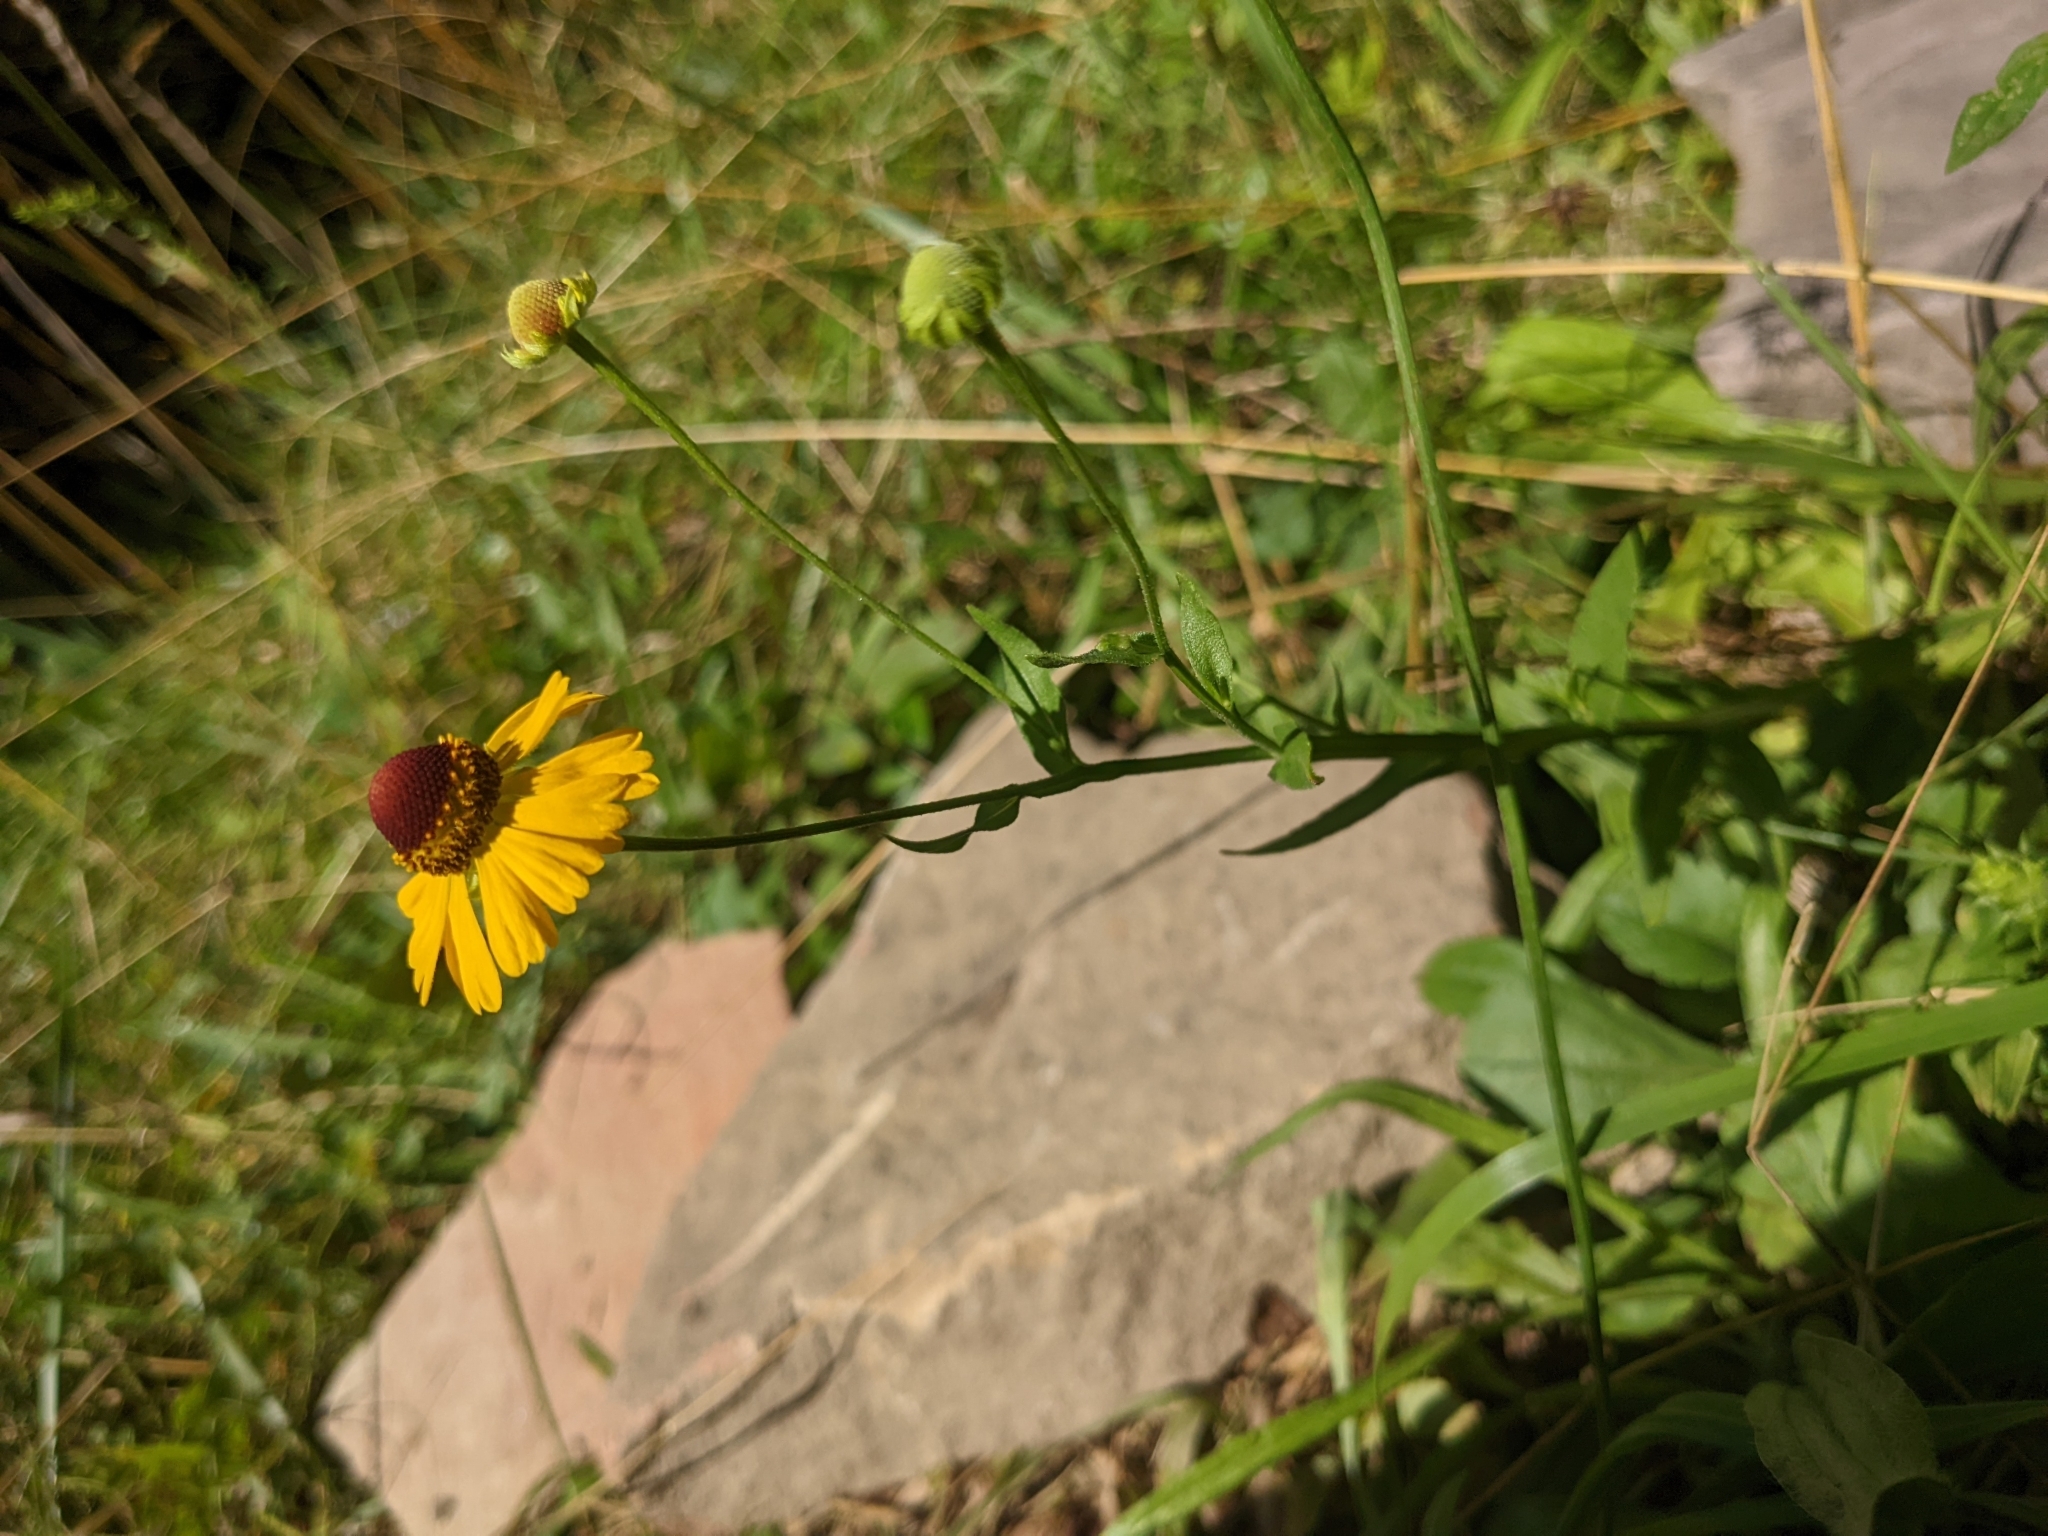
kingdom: Plantae
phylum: Tracheophyta
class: Magnoliopsida
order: Asterales
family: Asteraceae
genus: Helenium
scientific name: Helenium flexuosum
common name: Naked-flowered sneezeweed
